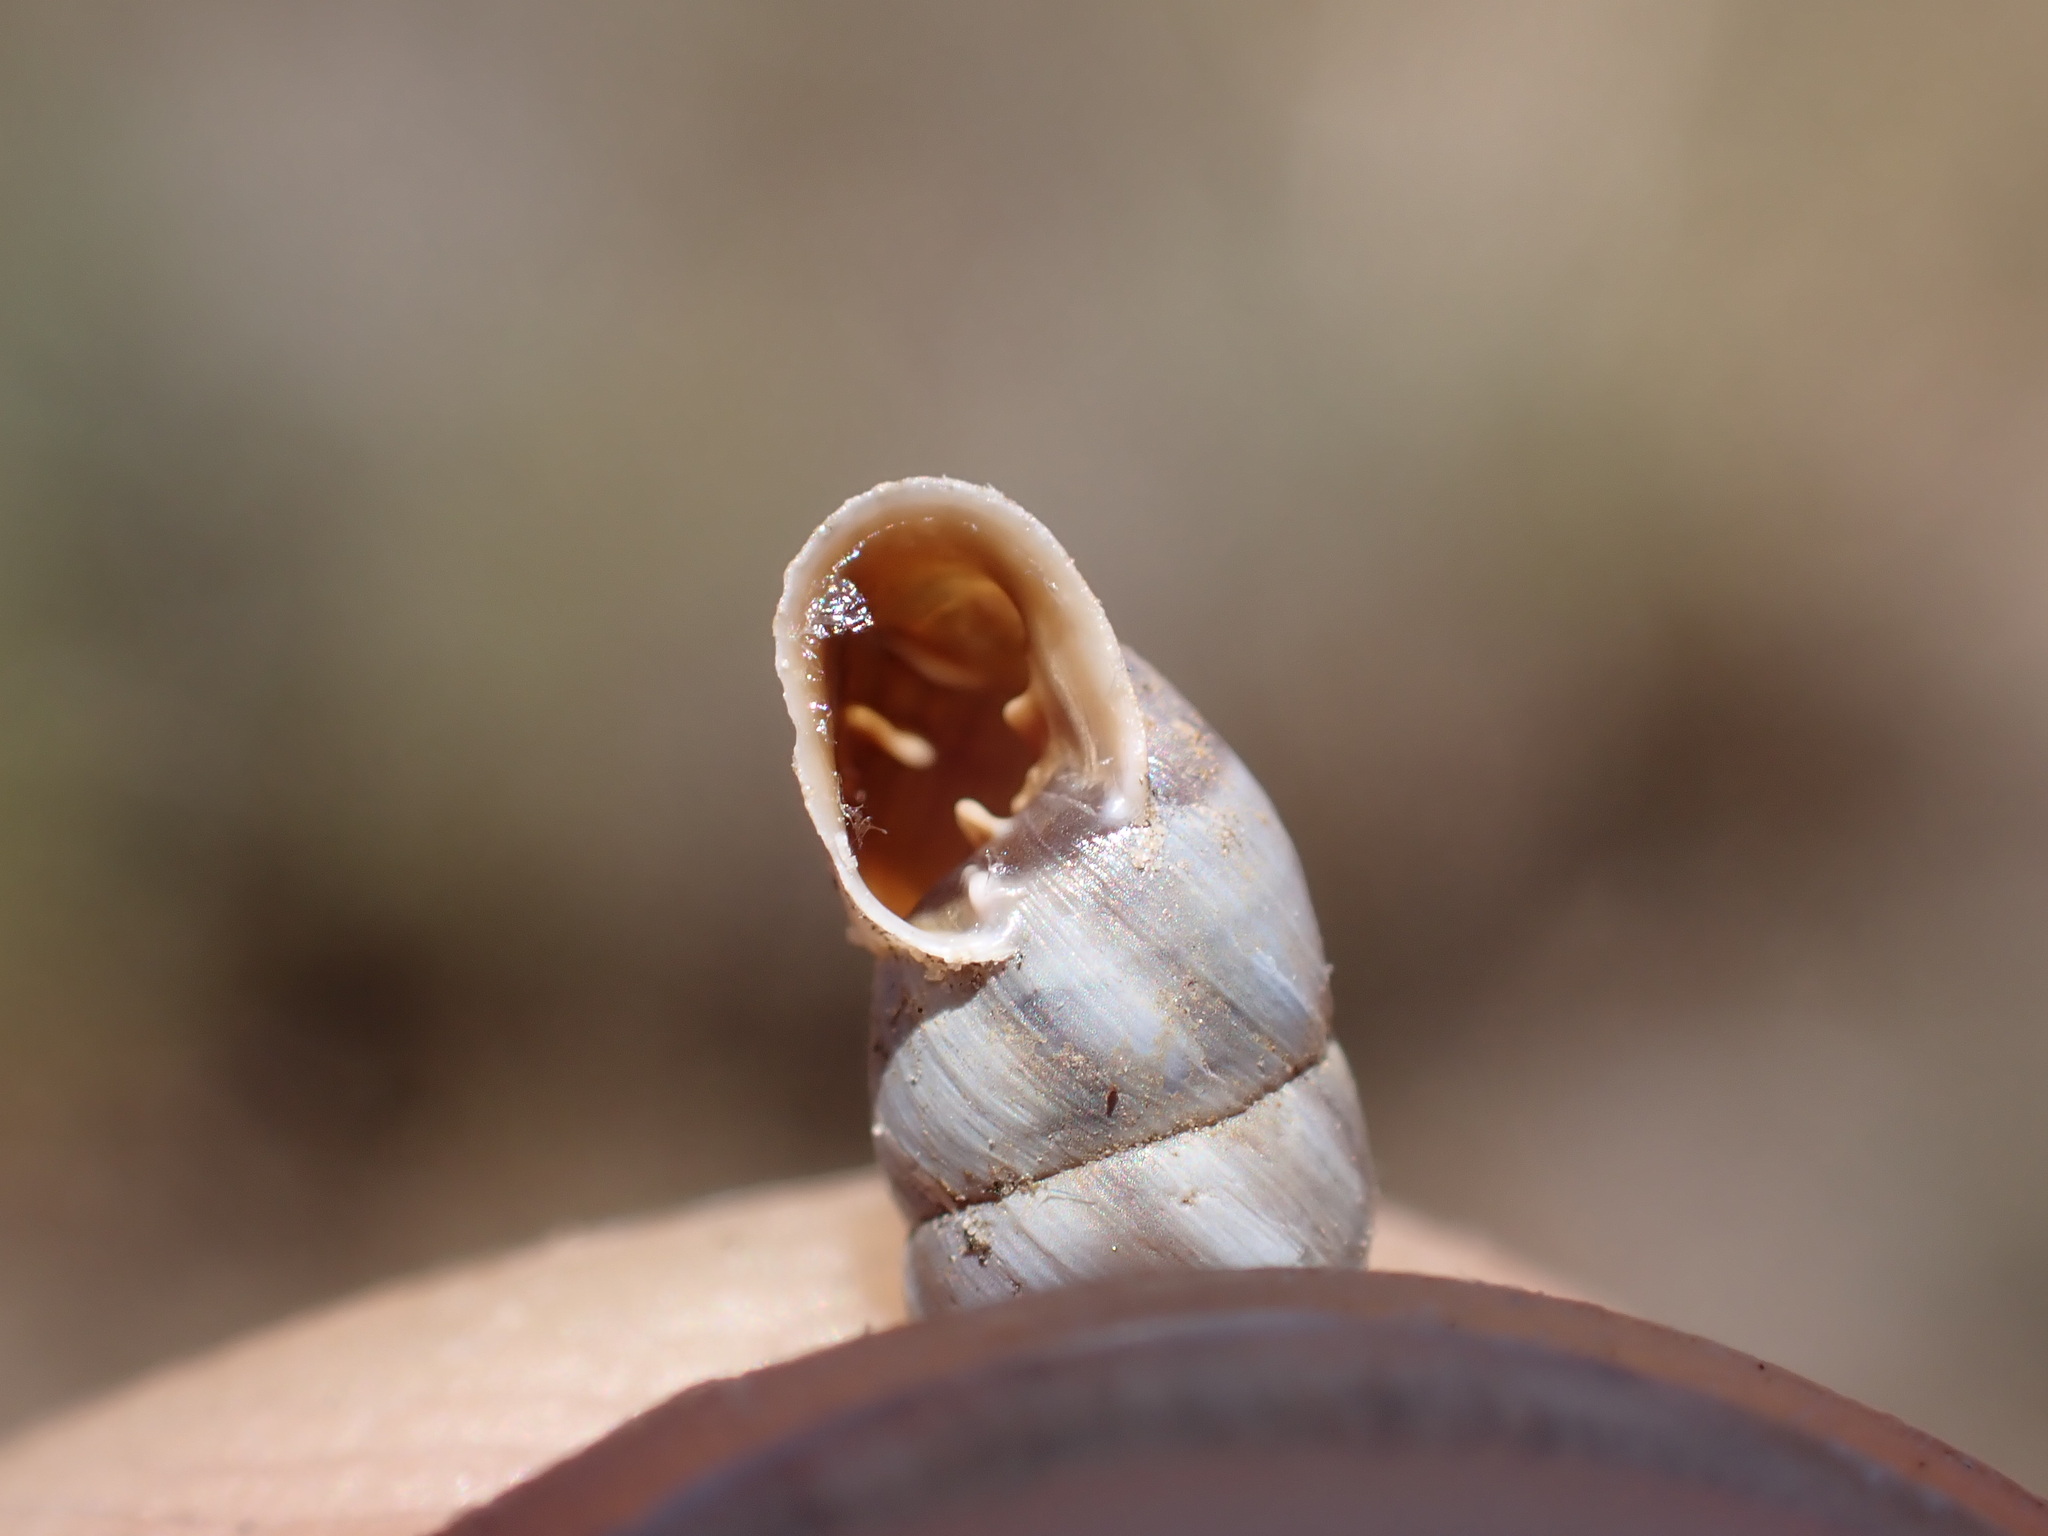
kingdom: Animalia
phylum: Mollusca
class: Gastropoda
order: Stylommatophora
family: Chondrinidae
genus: Solatopupa
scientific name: Solatopupa similis
